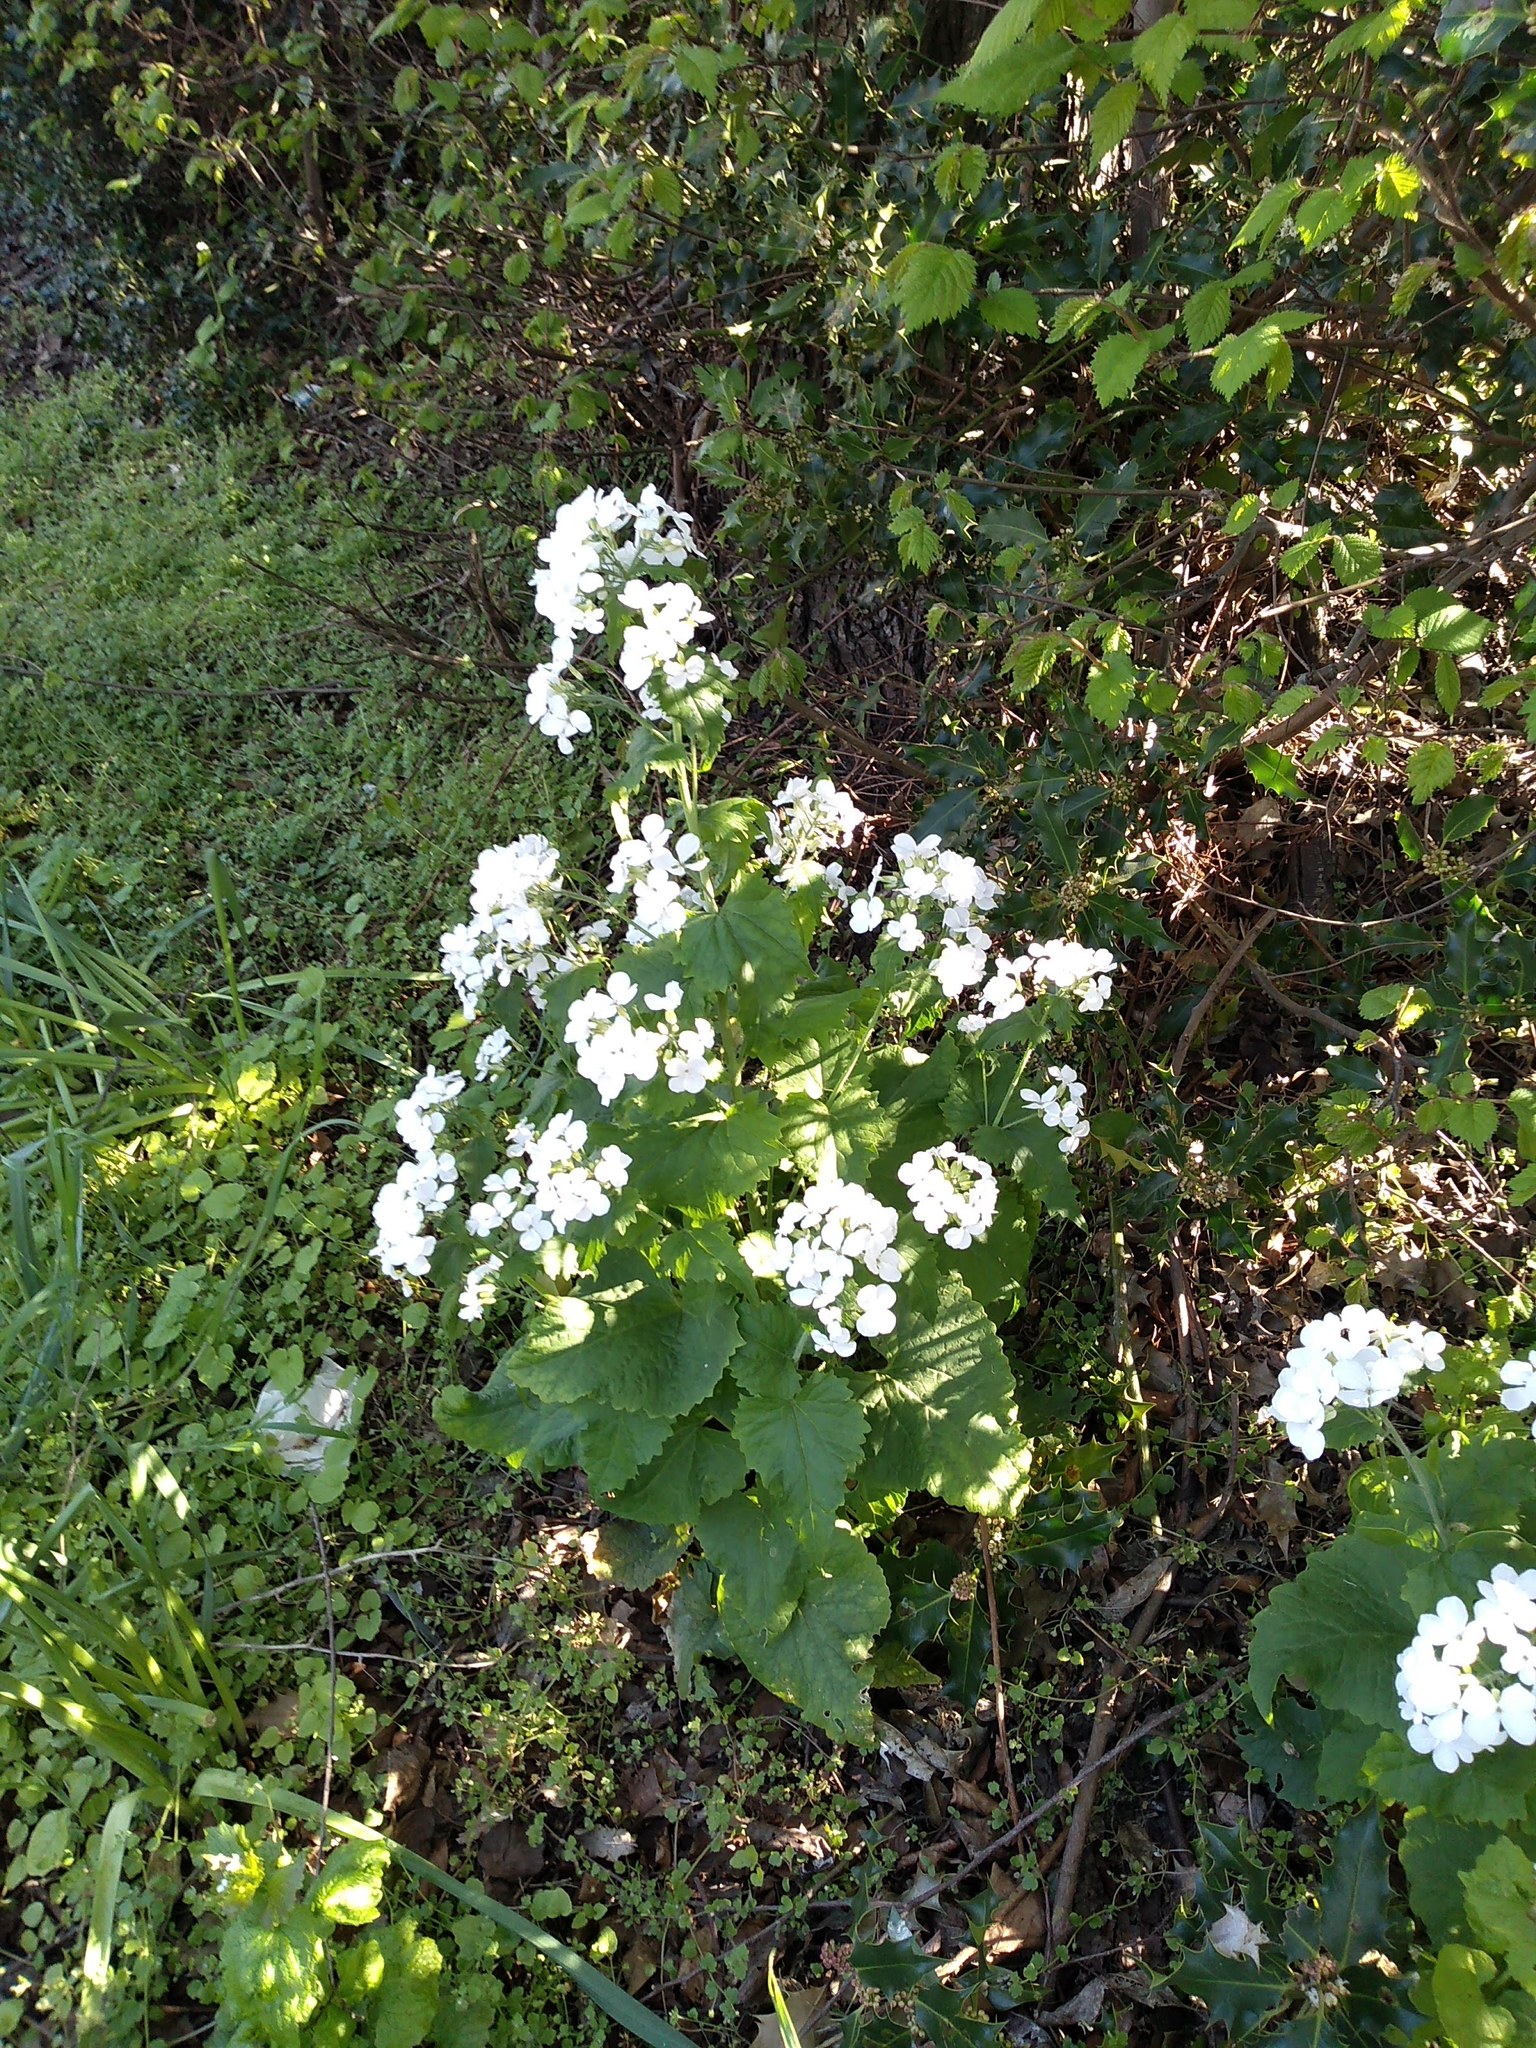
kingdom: Plantae
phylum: Tracheophyta
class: Magnoliopsida
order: Brassicales
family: Brassicaceae
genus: Lunaria
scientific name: Lunaria annua
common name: Honesty
